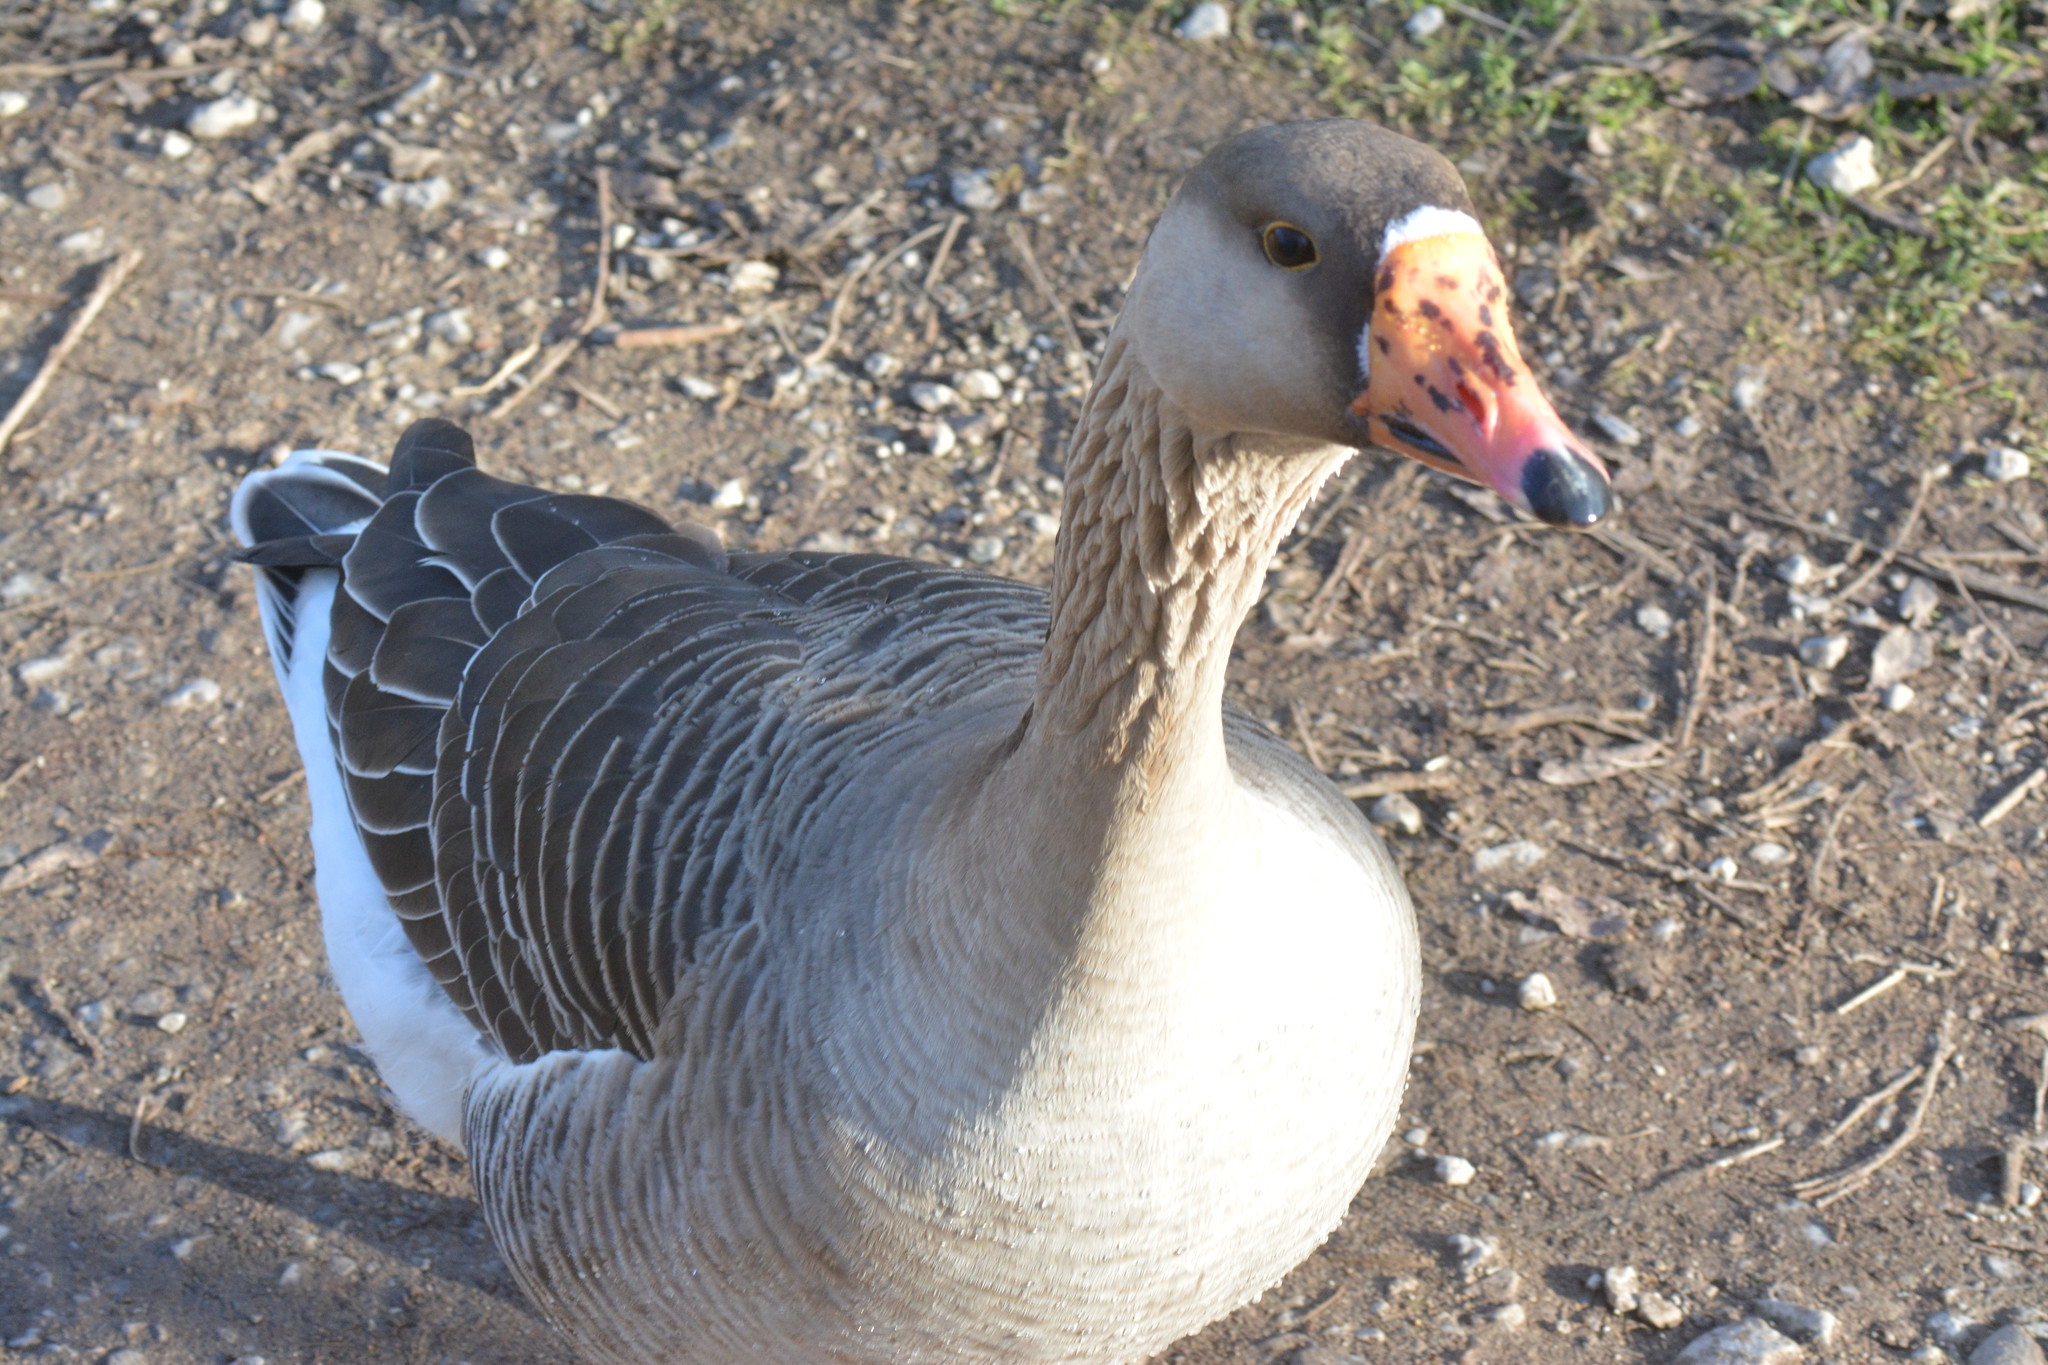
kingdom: Animalia
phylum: Chordata
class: Aves
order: Anseriformes
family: Anatidae
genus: Anser
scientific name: Anser
